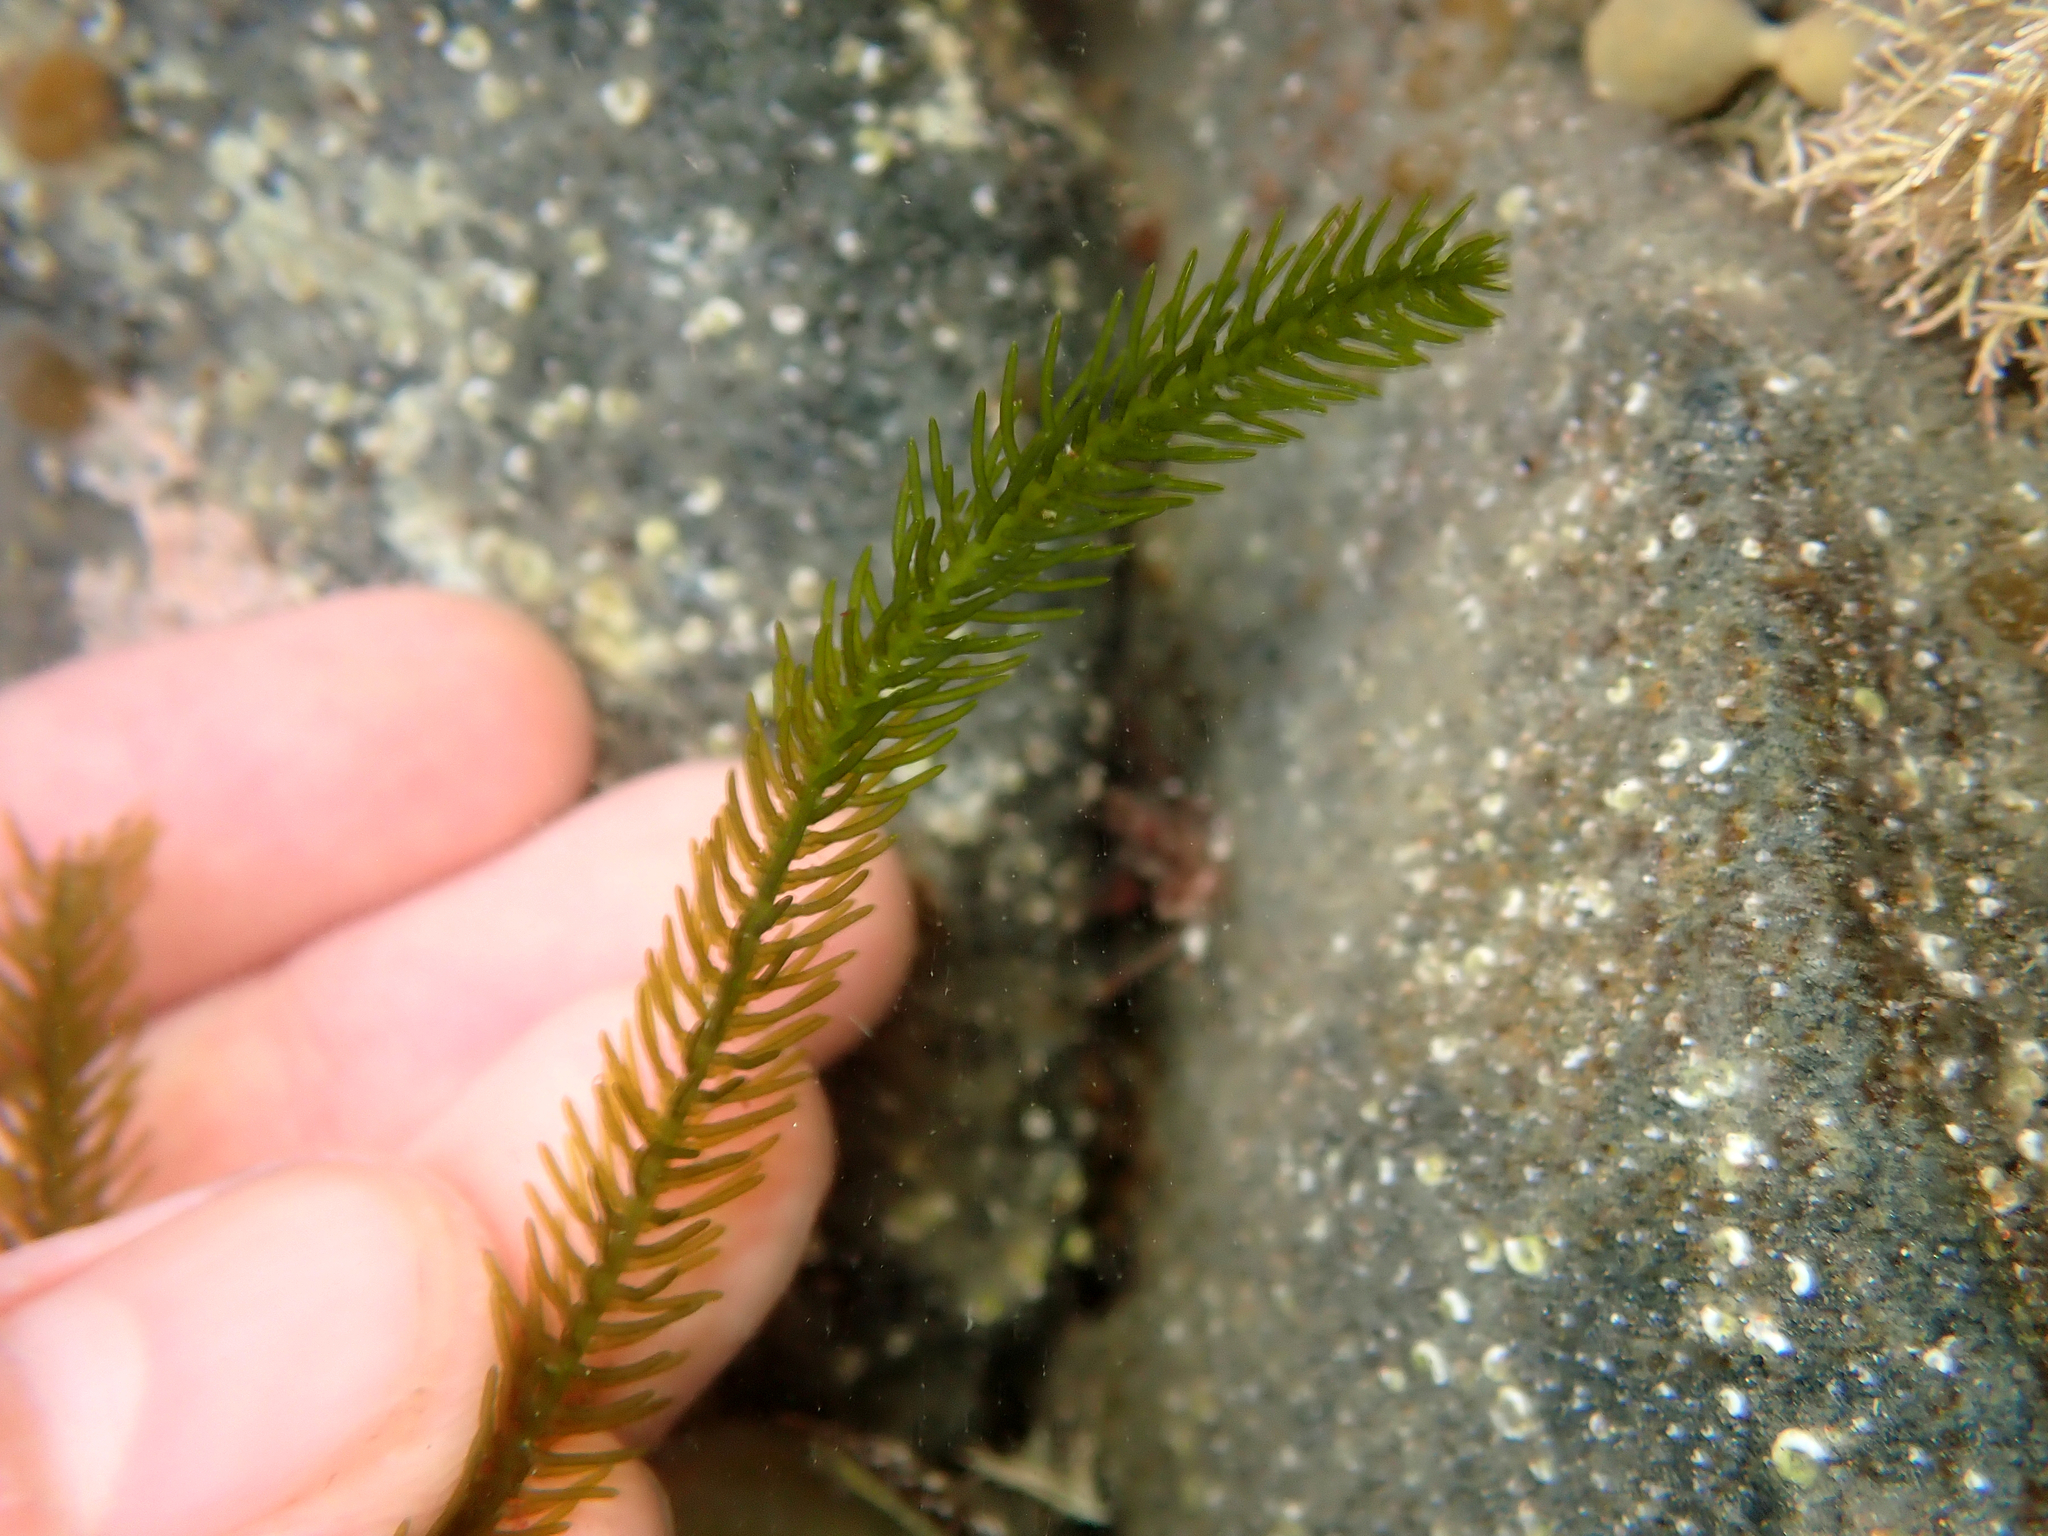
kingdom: Plantae
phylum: Chlorophyta
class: Ulvophyceae
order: Bryopsidales
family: Caulerpaceae
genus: Caulerpa
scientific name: Caulerpa brownii
